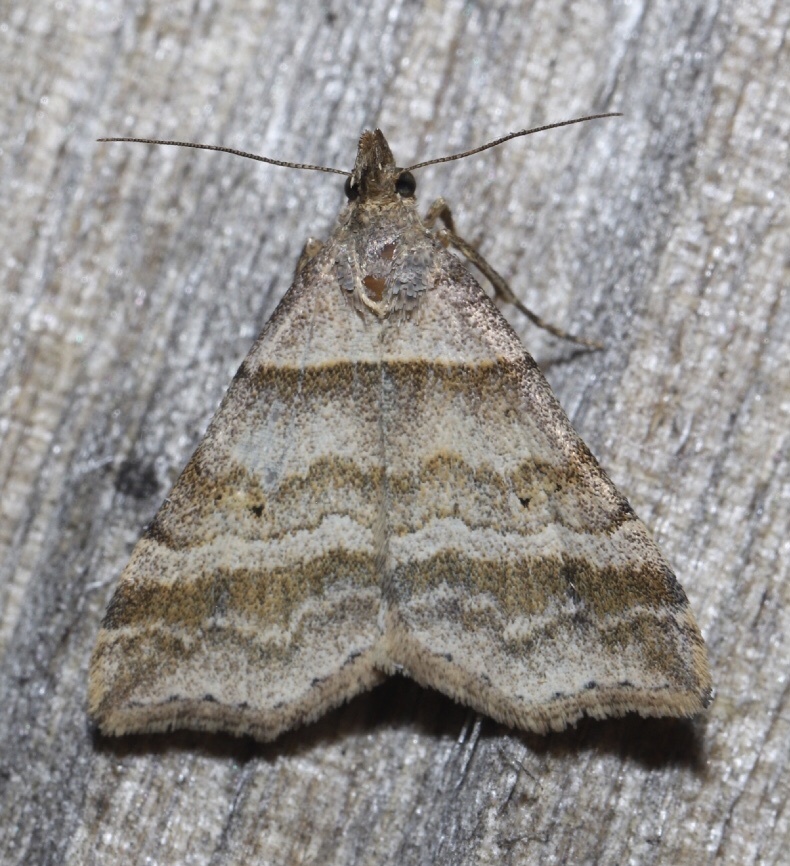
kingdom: Animalia
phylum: Arthropoda
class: Insecta
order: Lepidoptera
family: Erebidae
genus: Phaeolita
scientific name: Phaeolita pyramusalis
